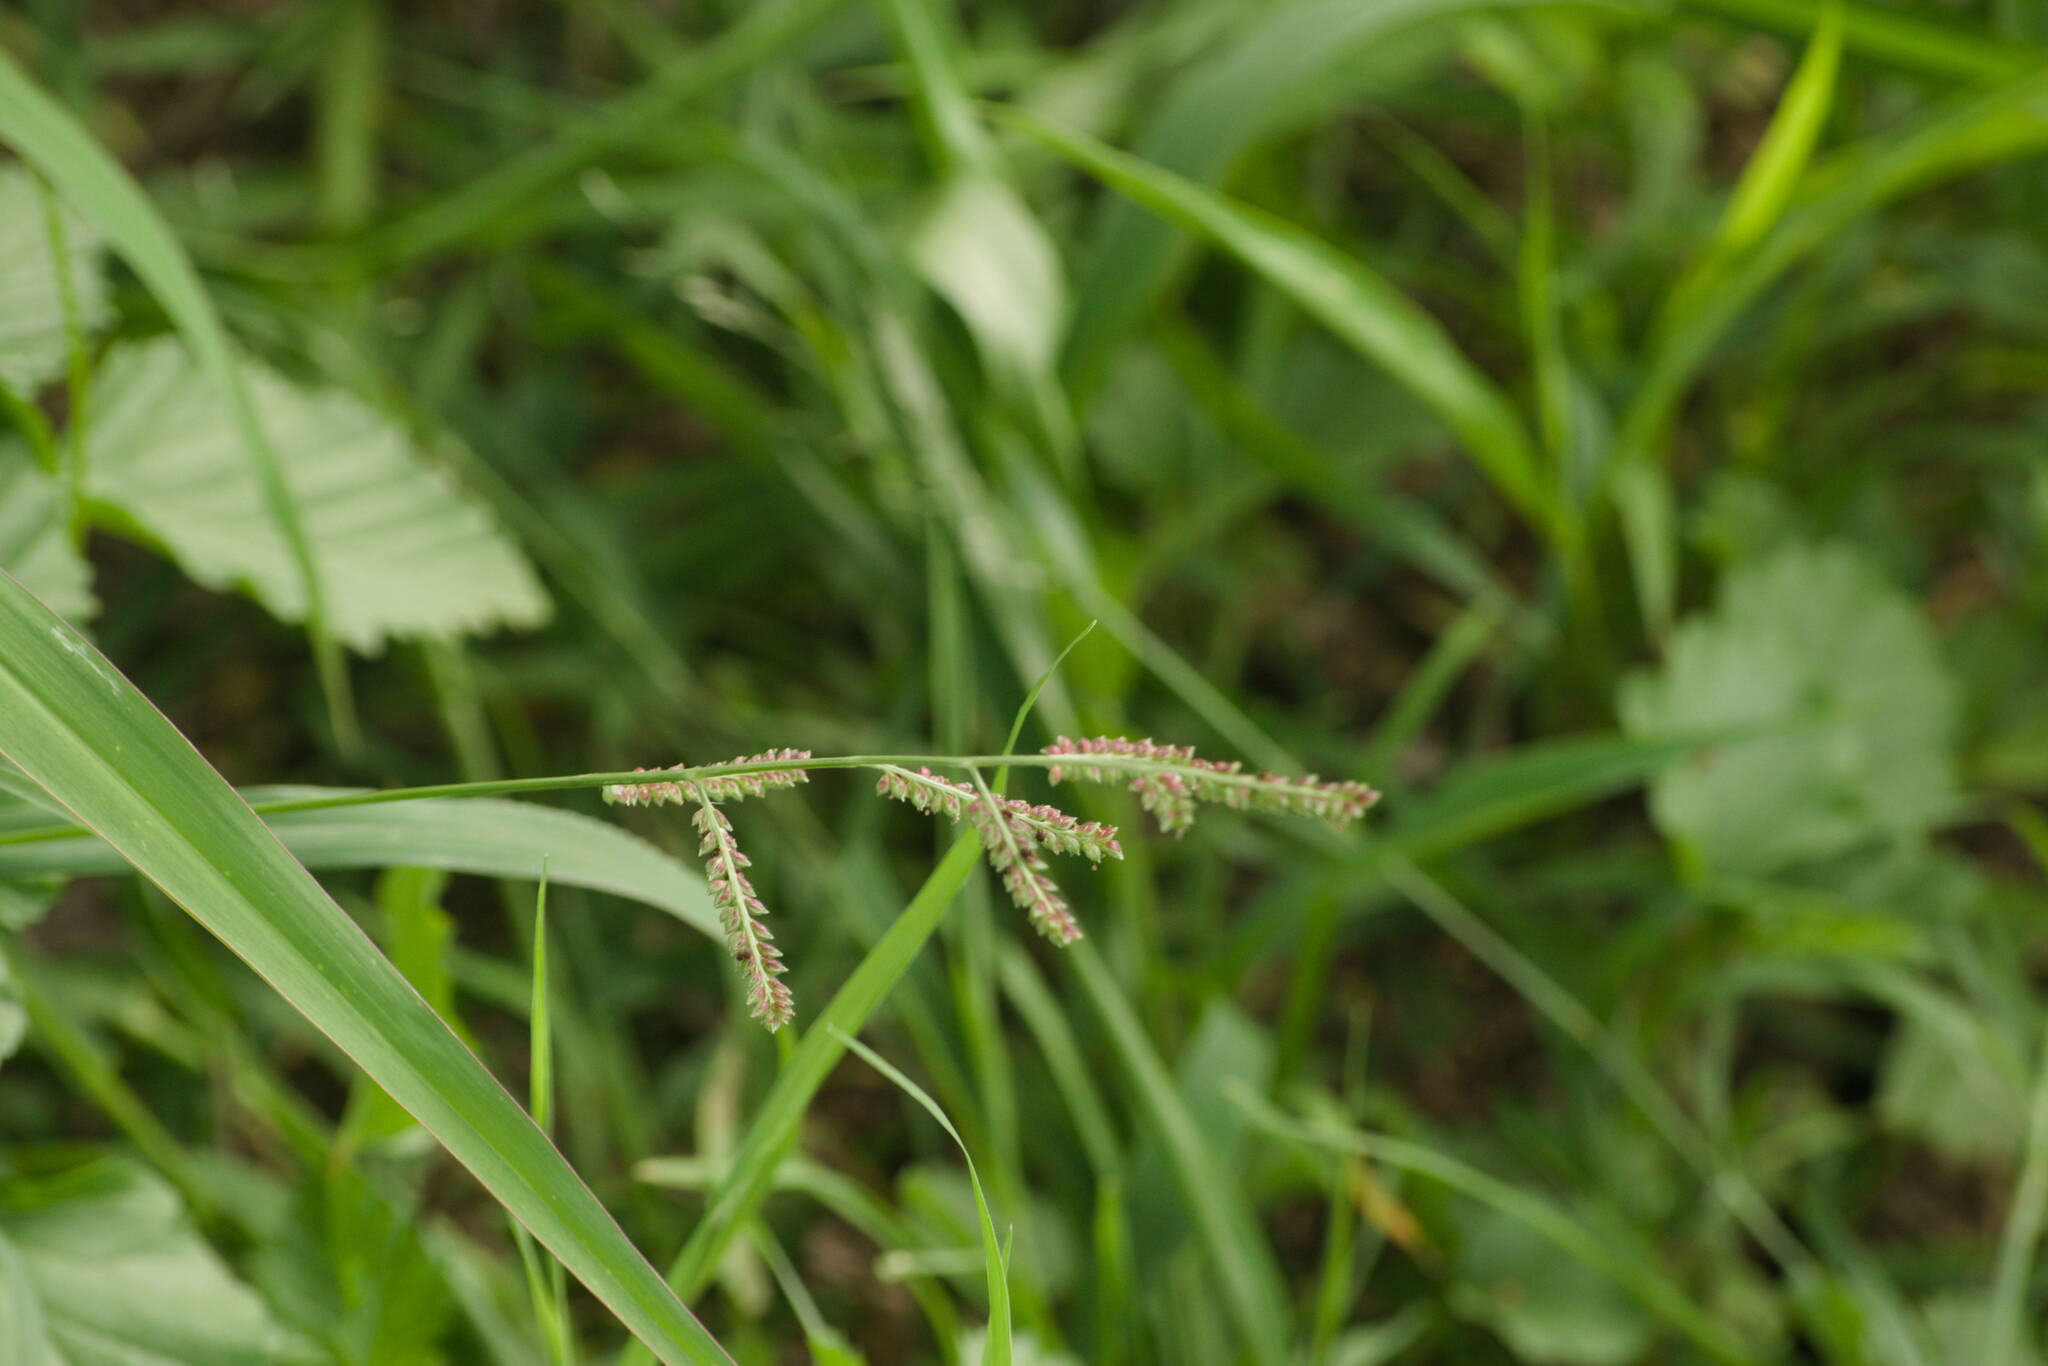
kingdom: Plantae
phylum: Tracheophyta
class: Liliopsida
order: Poales
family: Poaceae
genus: Echinochloa
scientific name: Echinochloa colonum
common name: Jungle rice
